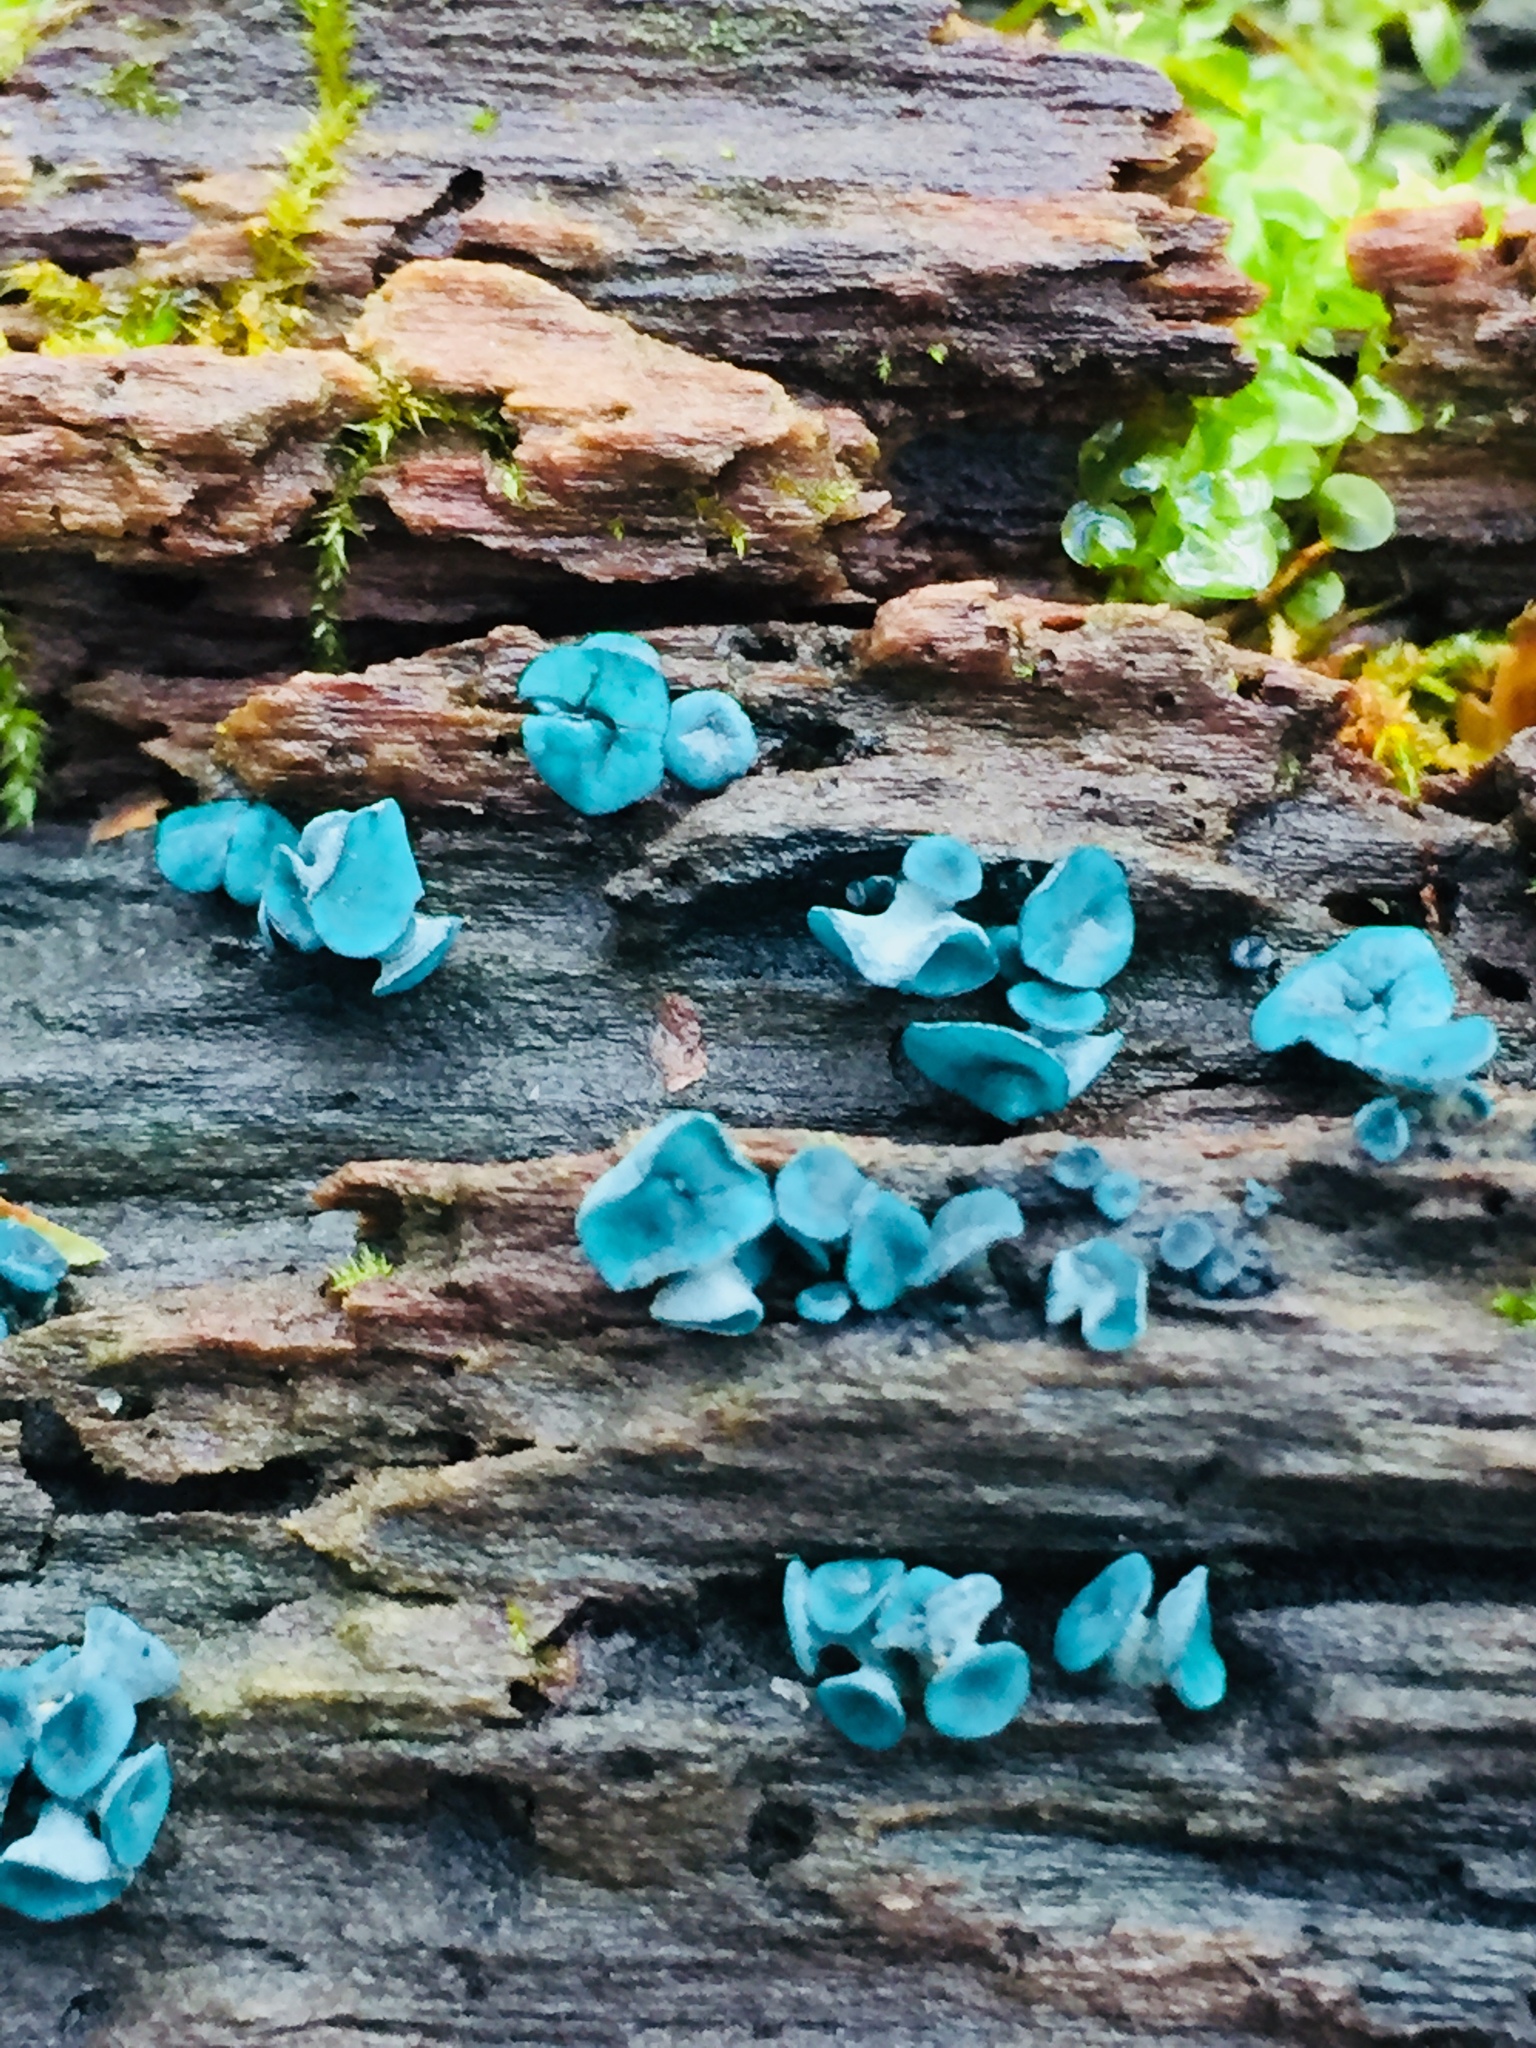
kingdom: Fungi
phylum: Ascomycota
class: Leotiomycetes
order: Helotiales
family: Chlorociboriaceae
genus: Chlorociboria
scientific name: Chlorociboria
